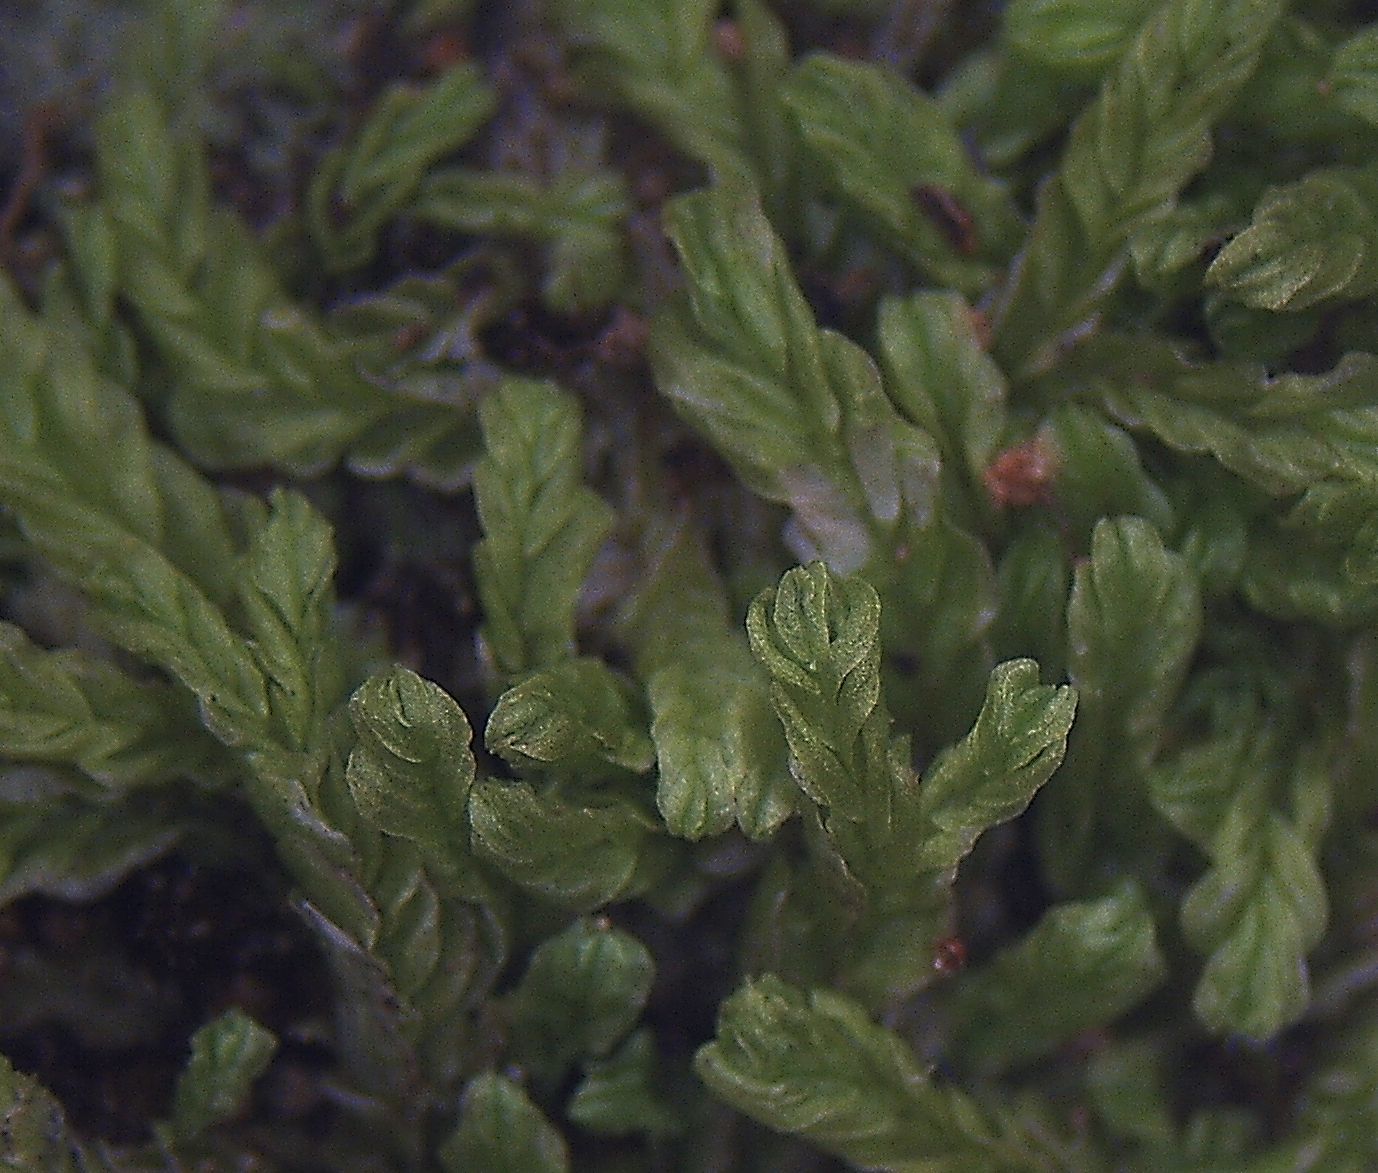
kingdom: Plantae
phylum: Marchantiophyta
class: Jungermanniopsida
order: Jungermanniales
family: Lophocoleaceae
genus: Lophocolea
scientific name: Lophocolea semiteres
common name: Southern crestwort
